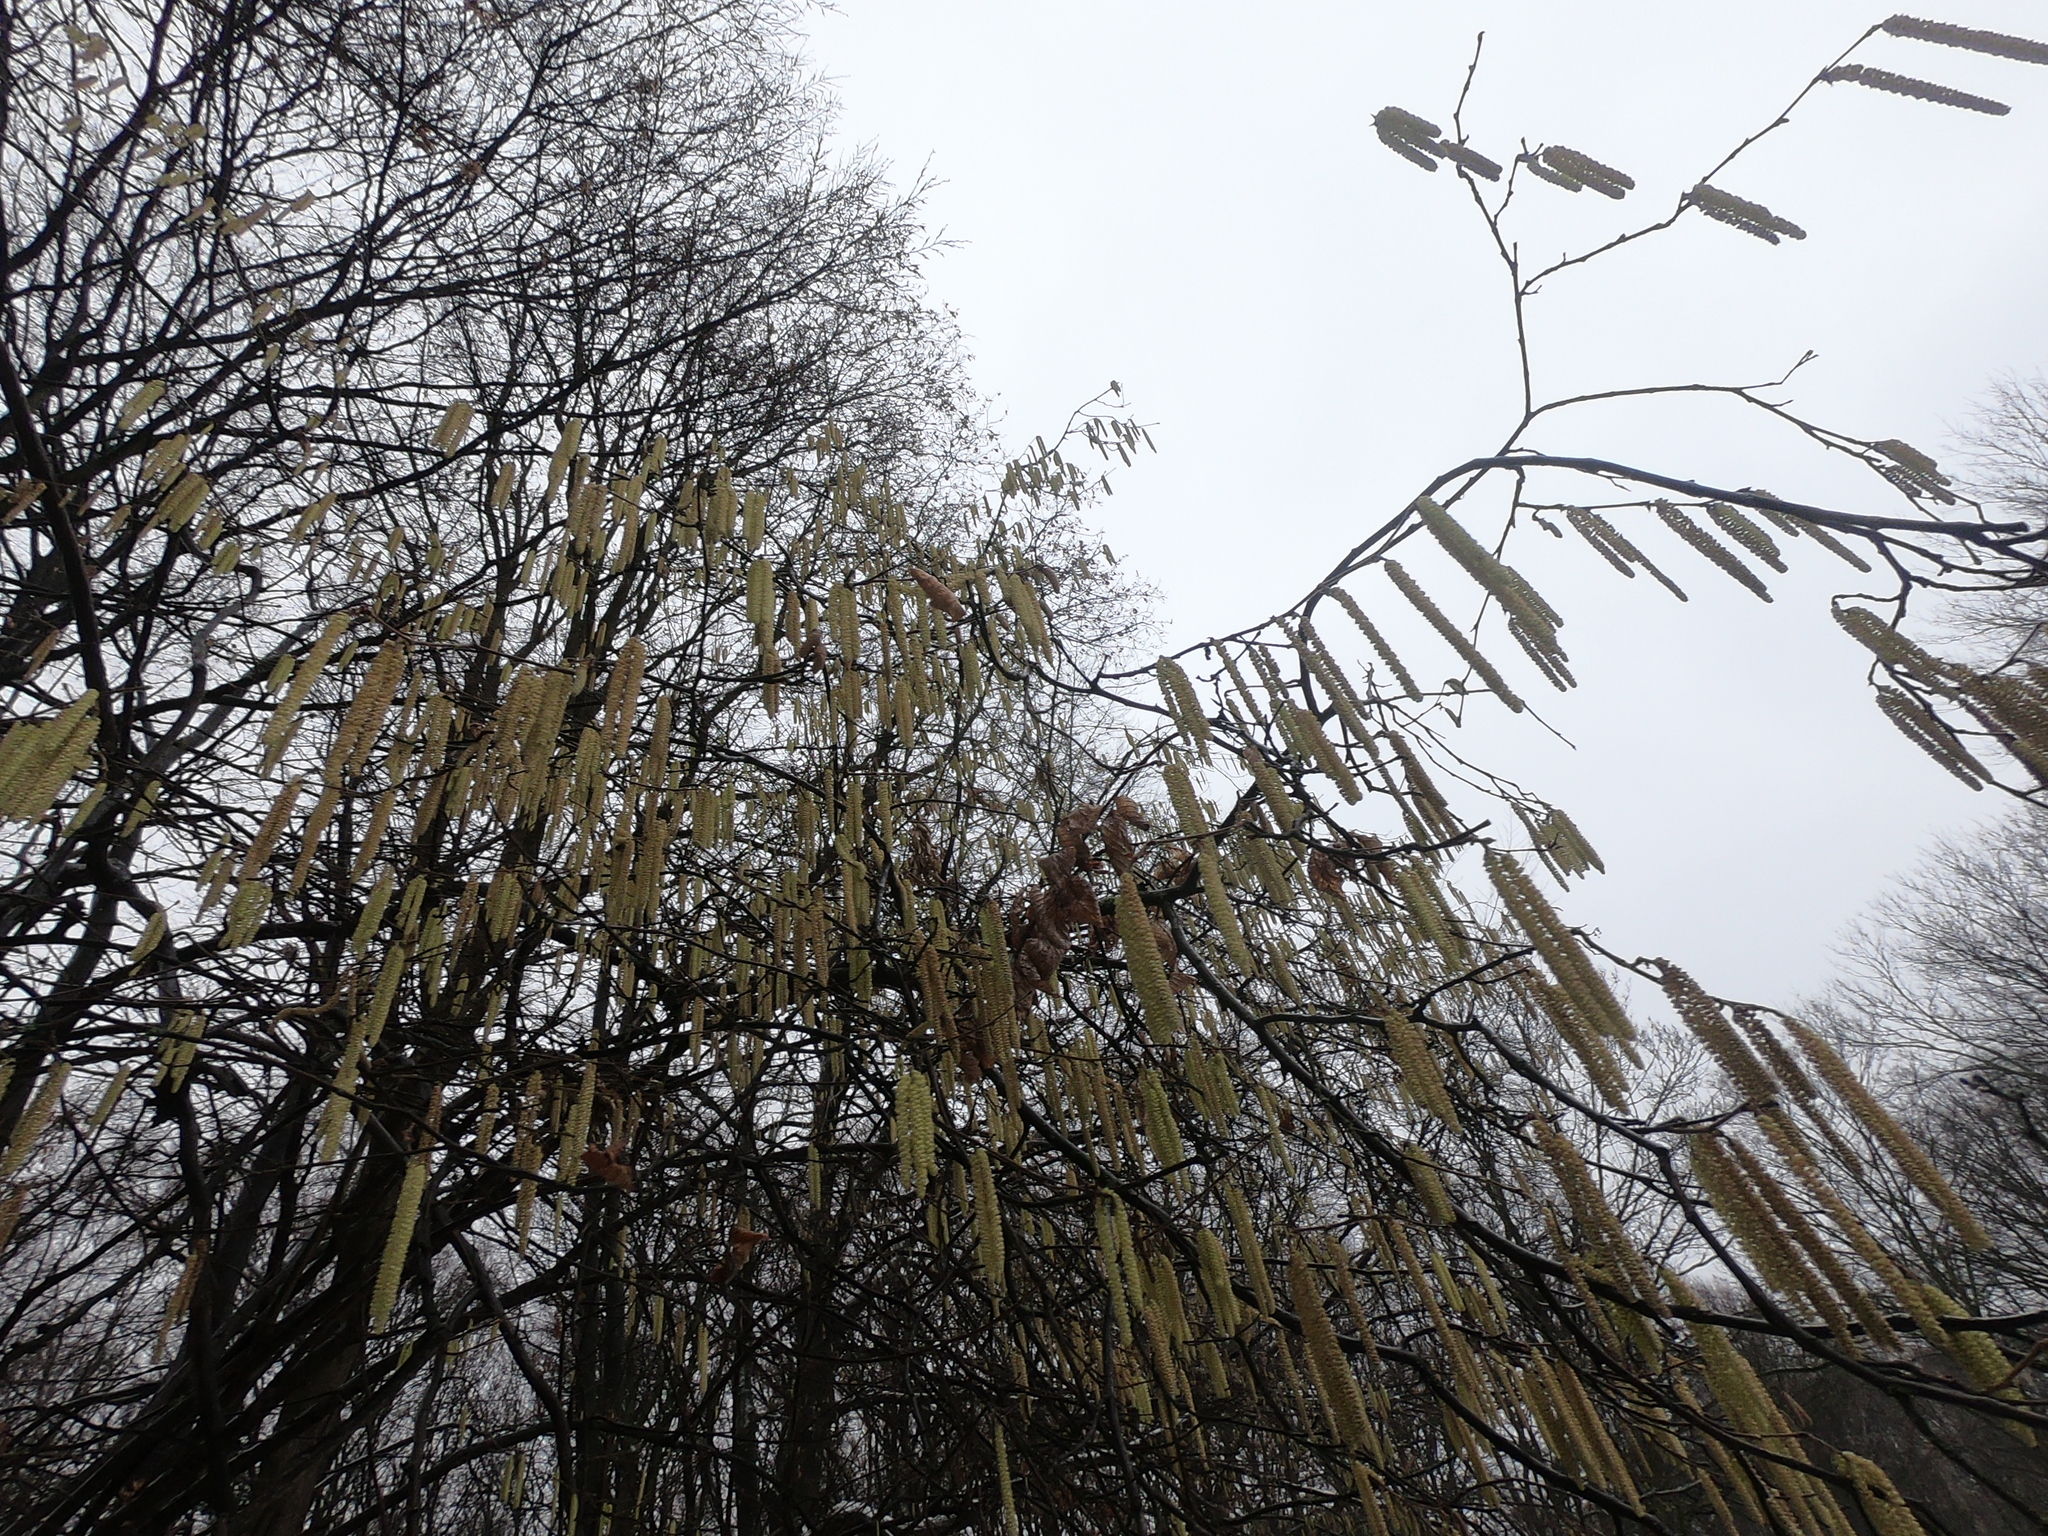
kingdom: Plantae
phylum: Tracheophyta
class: Magnoliopsida
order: Fagales
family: Betulaceae
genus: Corylus
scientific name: Corylus avellana
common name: European hazel
